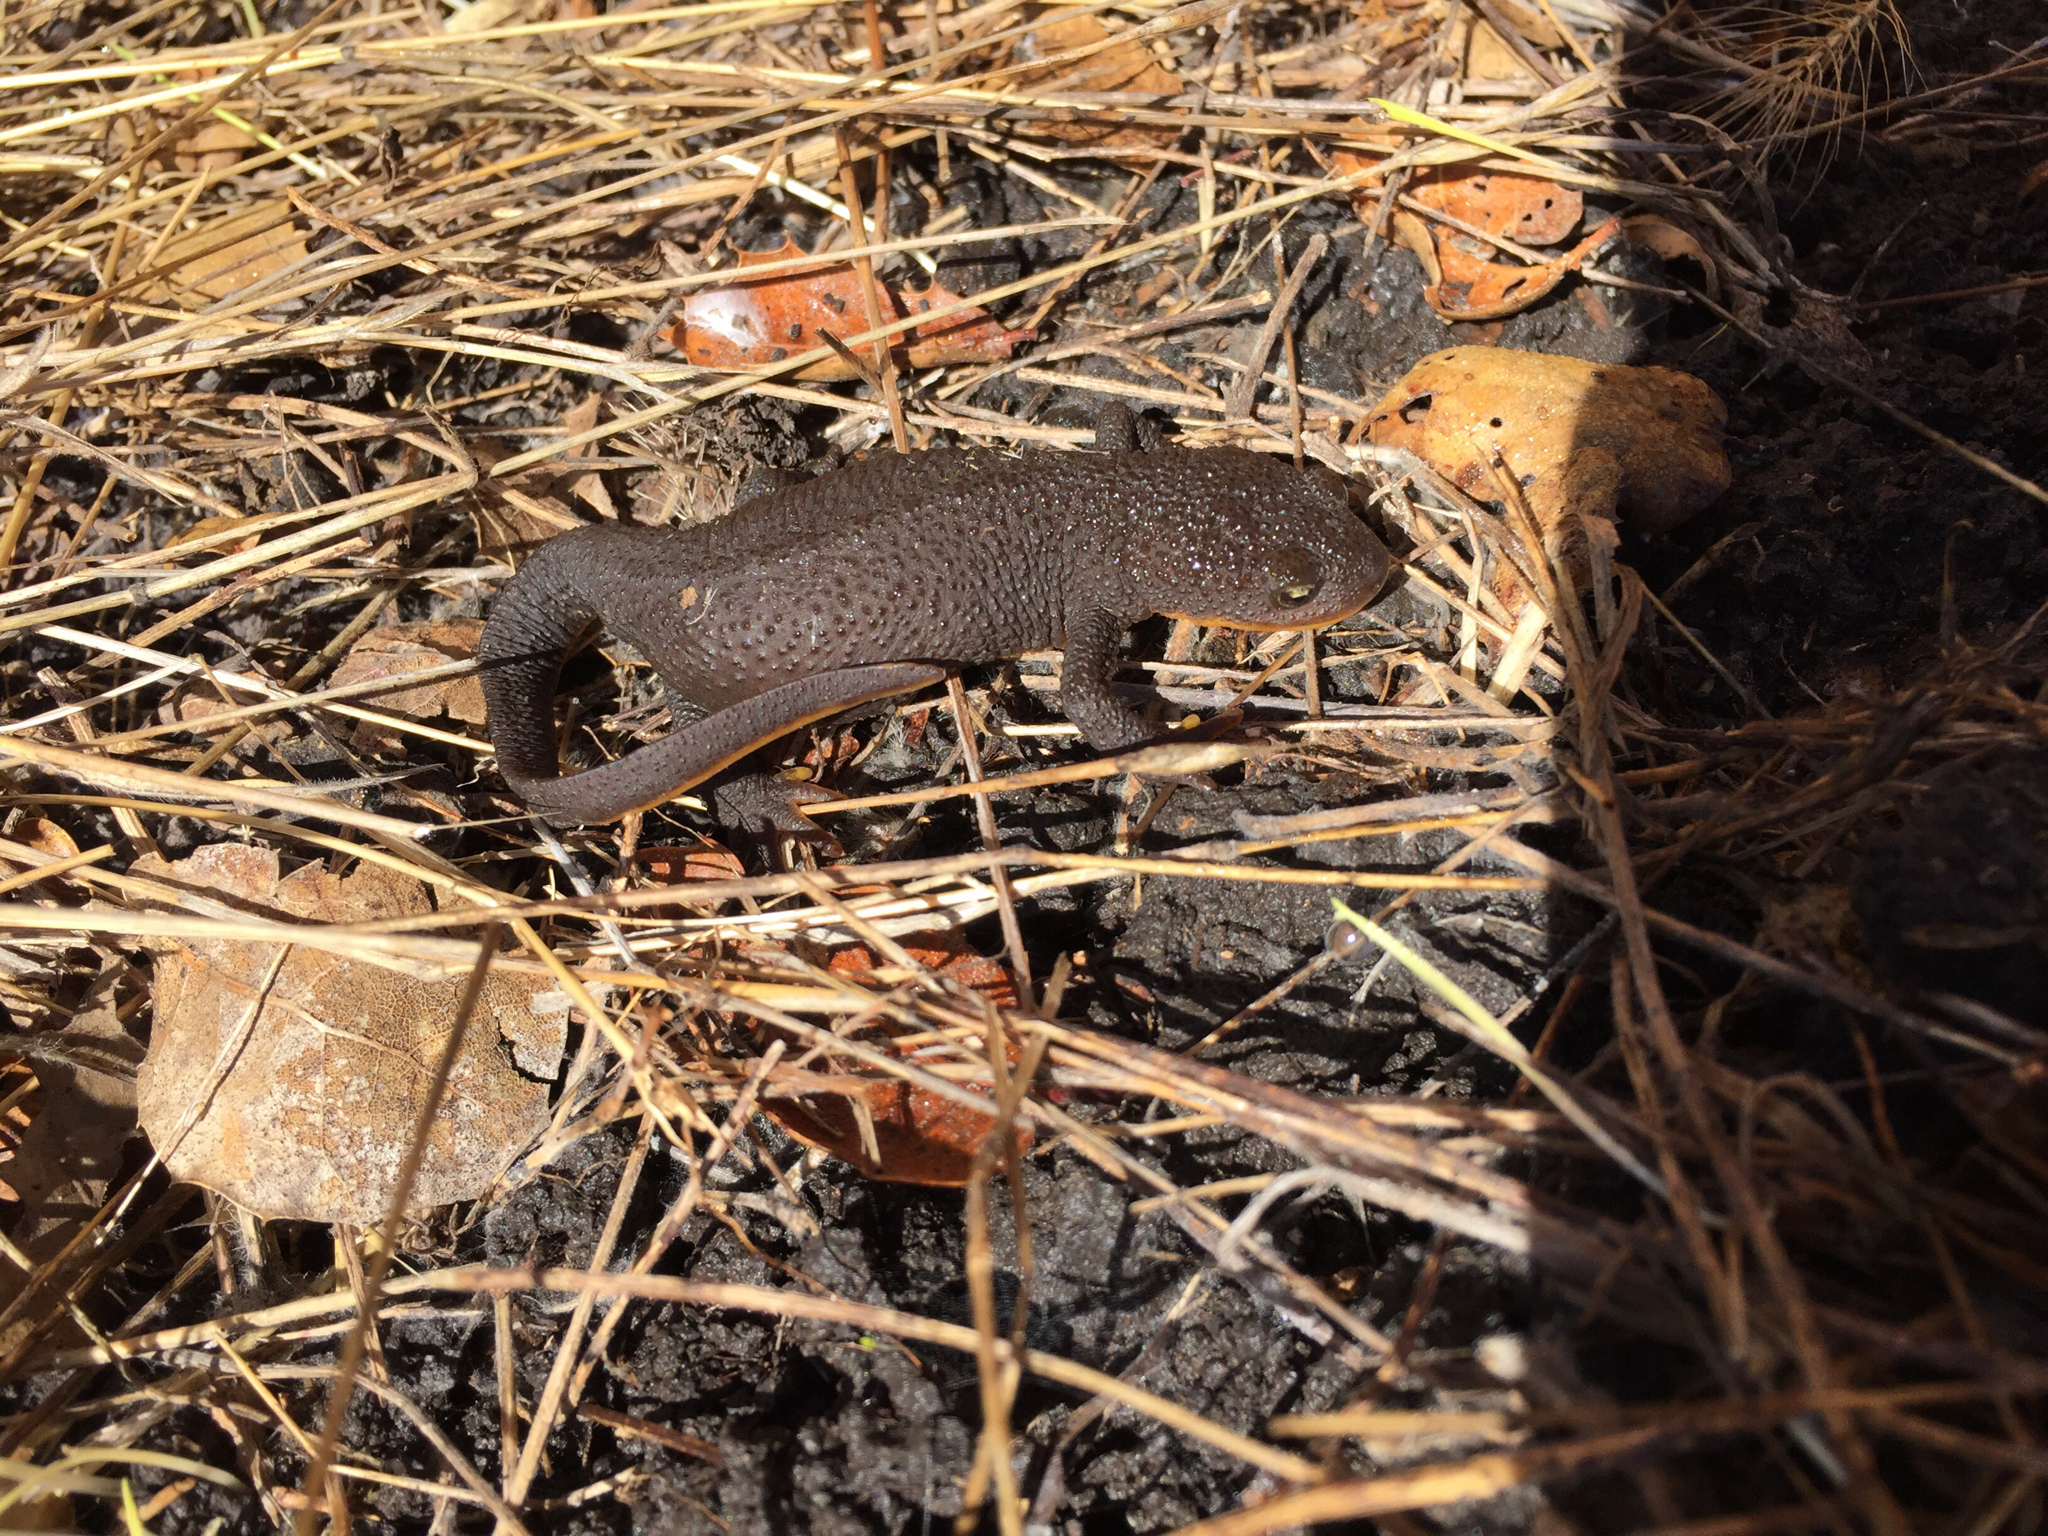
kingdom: Animalia
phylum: Chordata
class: Amphibia
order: Caudata
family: Salamandridae
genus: Taricha
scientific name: Taricha granulosa
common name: Roughskin newt
